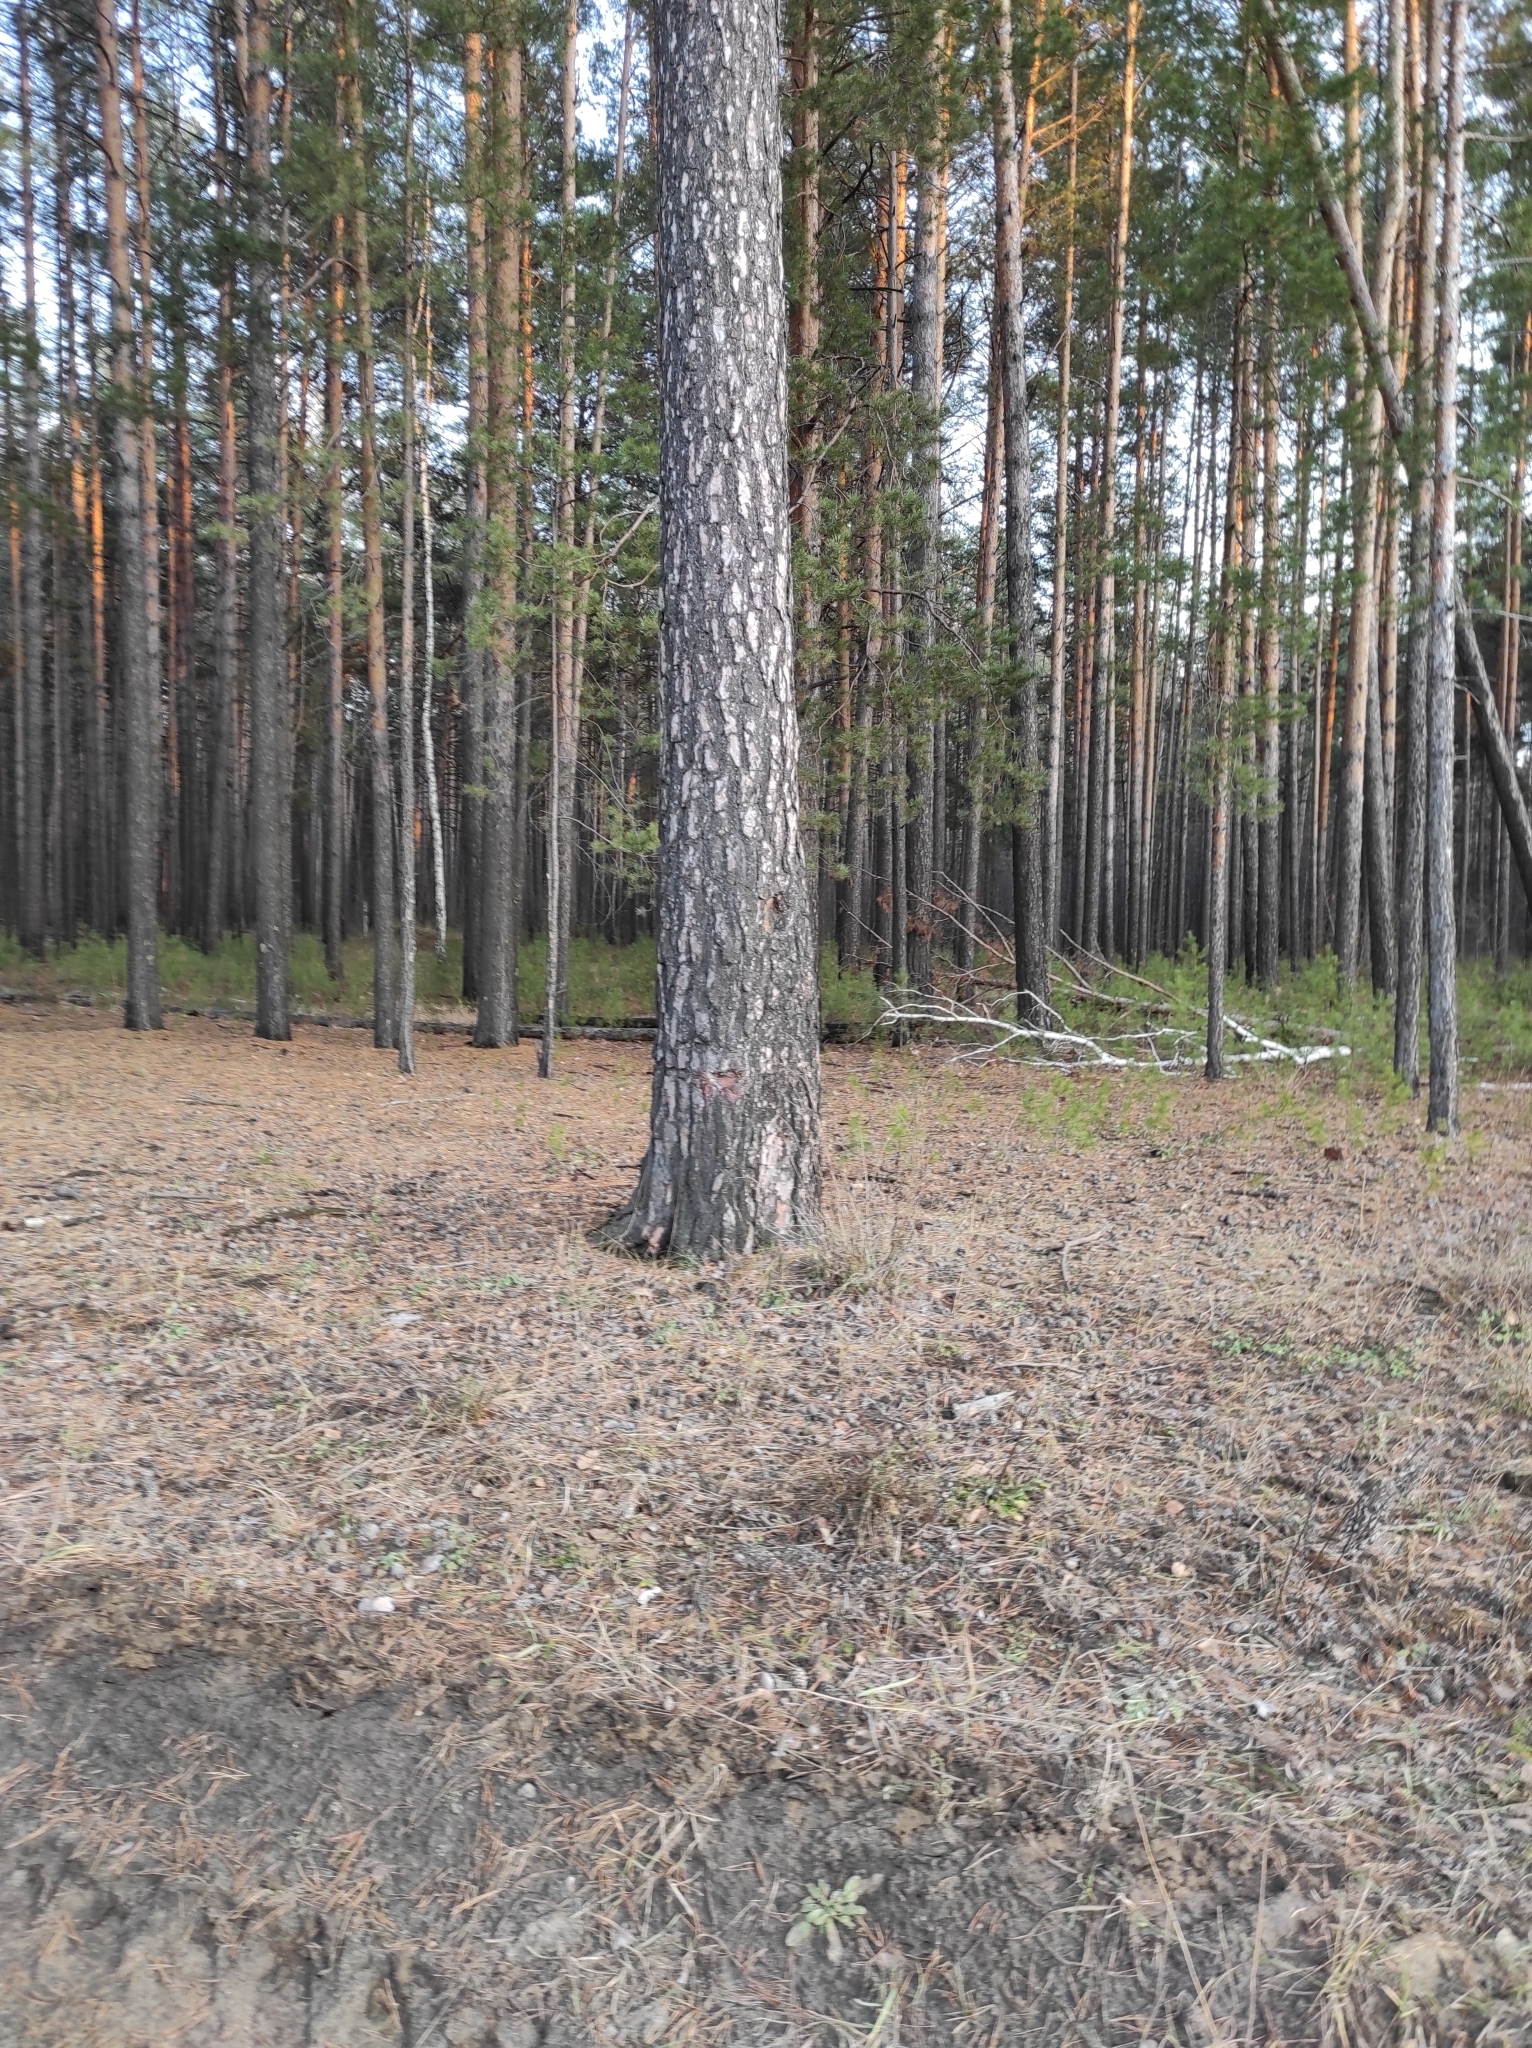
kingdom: Plantae
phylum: Tracheophyta
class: Pinopsida
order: Pinales
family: Pinaceae
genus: Pinus
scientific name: Pinus sylvestris
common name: Scots pine
